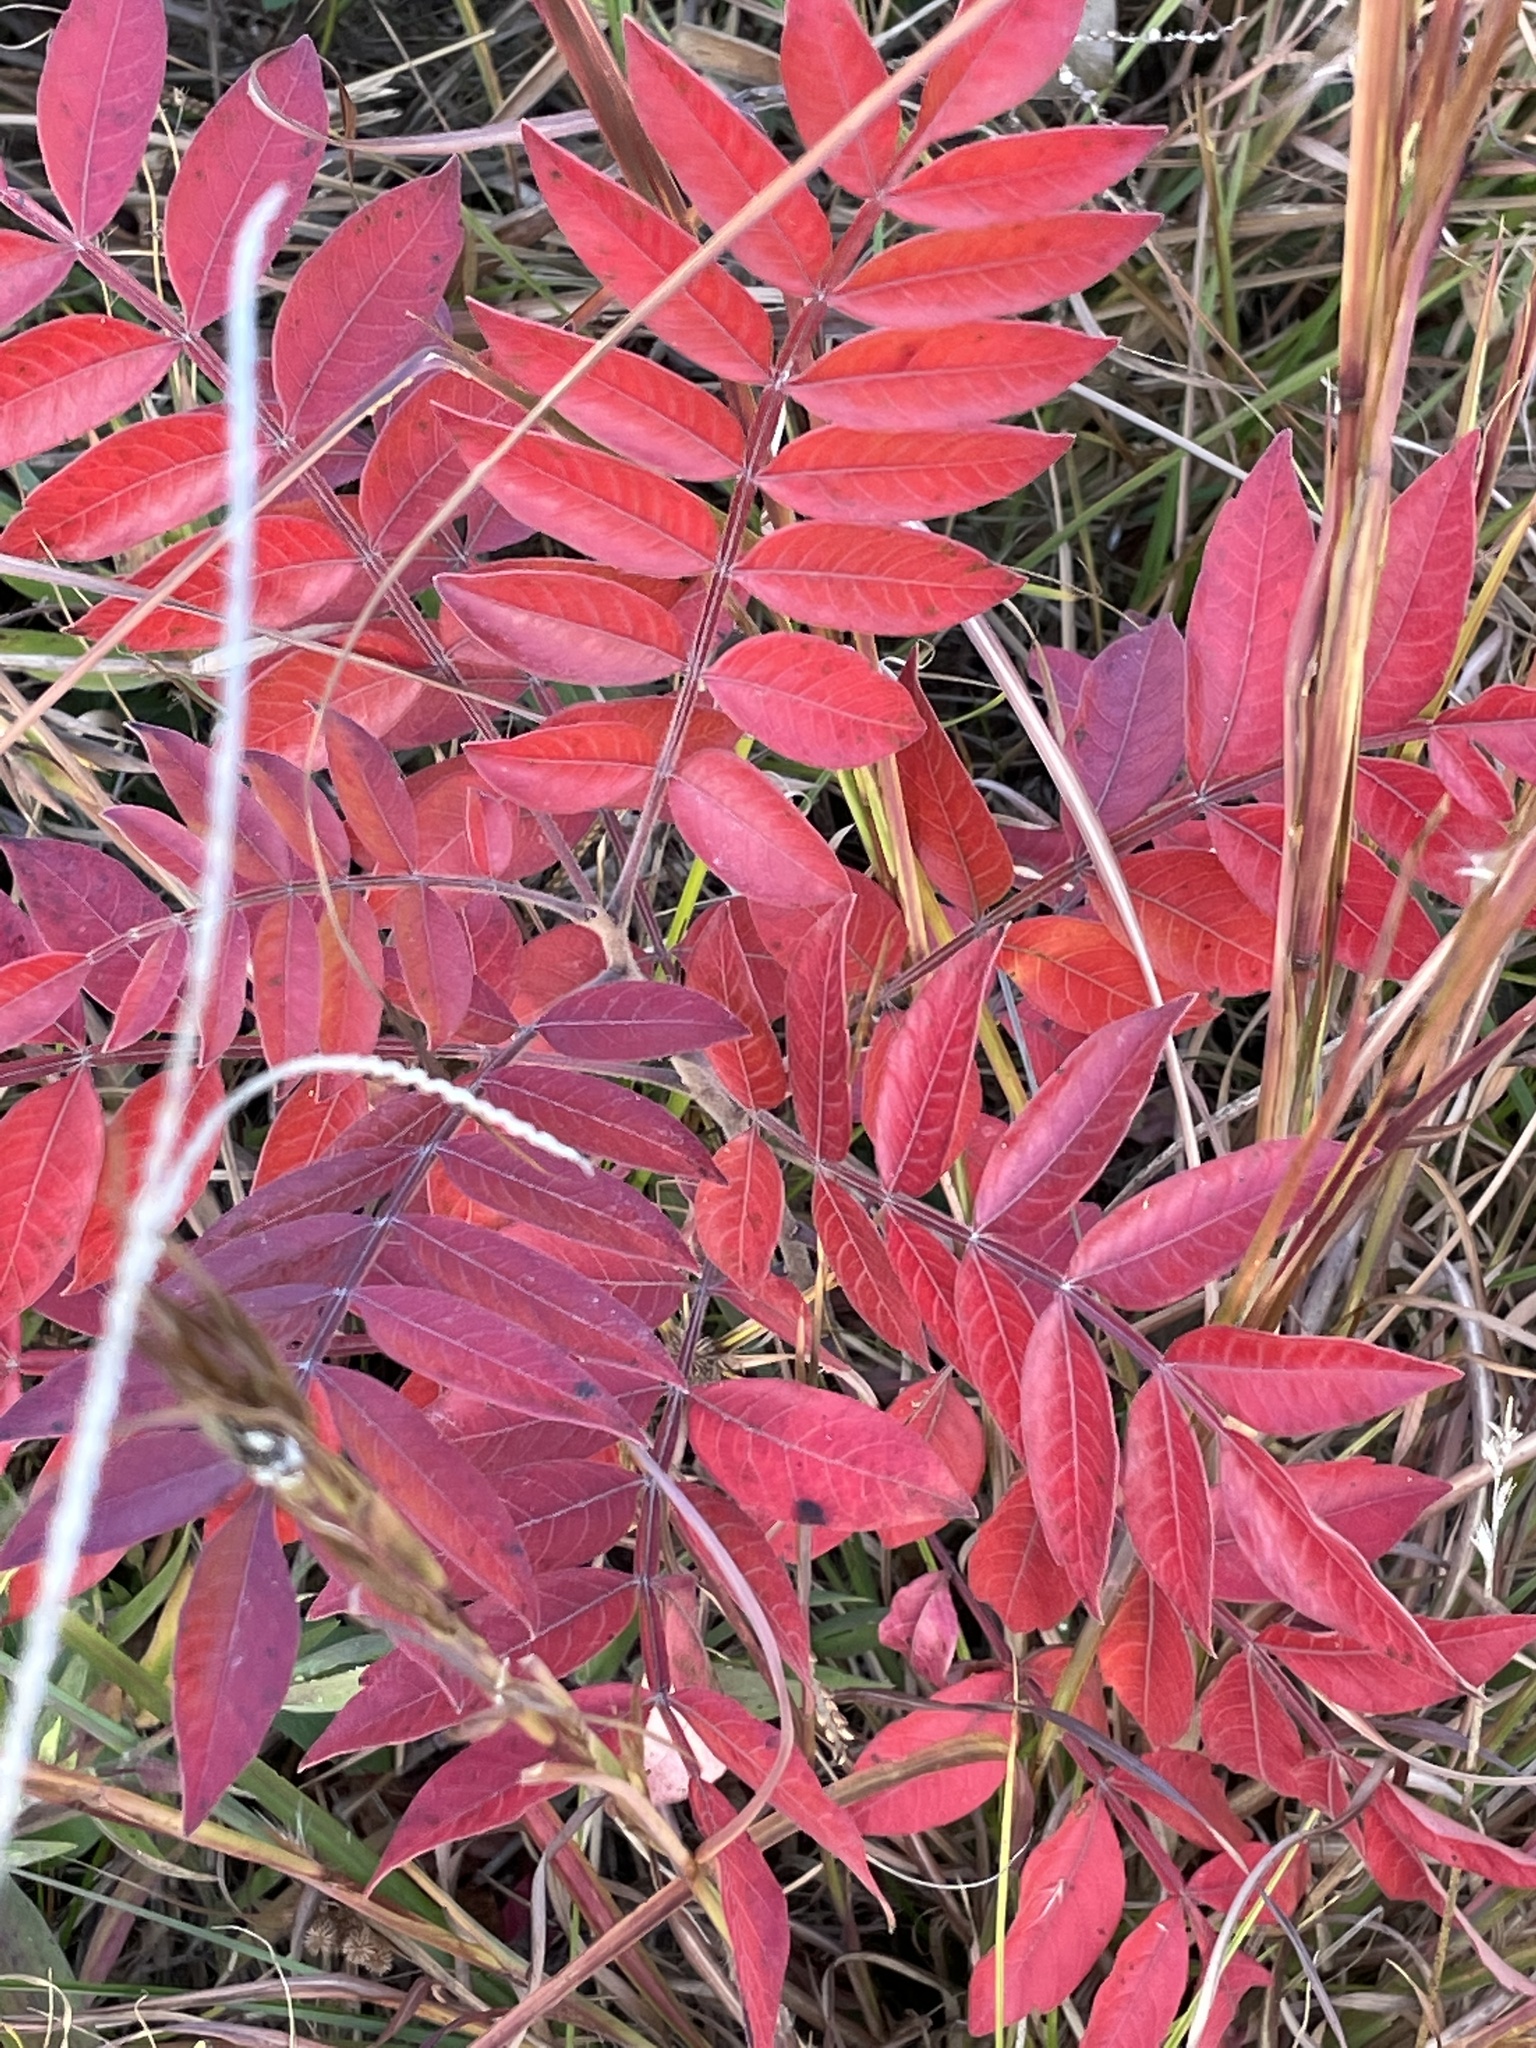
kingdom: Plantae
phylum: Tracheophyta
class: Magnoliopsida
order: Sapindales
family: Anacardiaceae
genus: Rhus
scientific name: Rhus copallina
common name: Shining sumac
